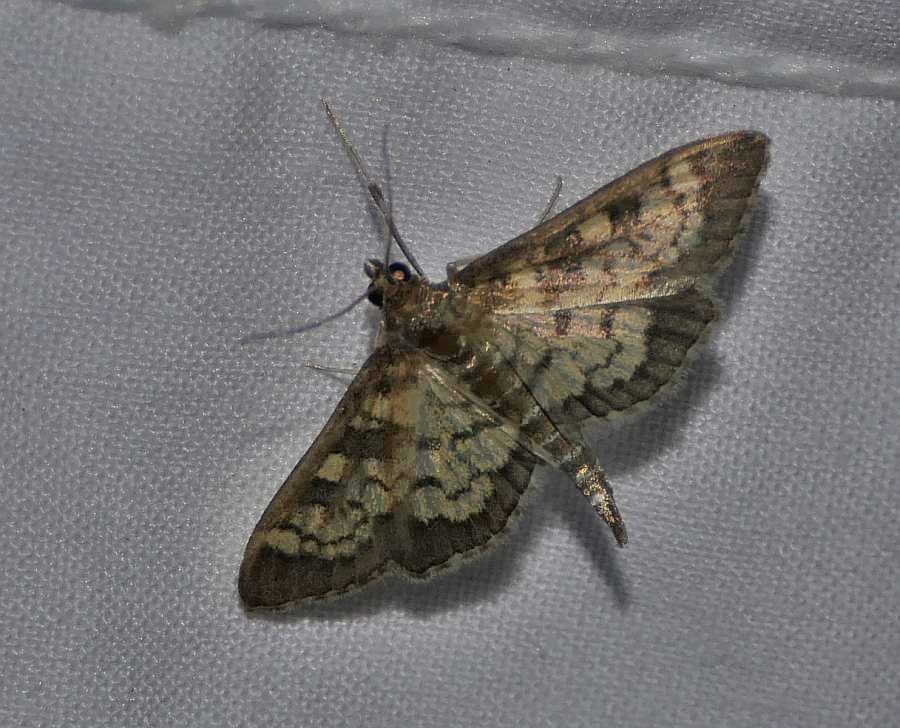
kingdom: Animalia
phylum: Arthropoda
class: Insecta
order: Lepidoptera
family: Crambidae
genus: Epipagis
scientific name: Epipagis adipaloides
